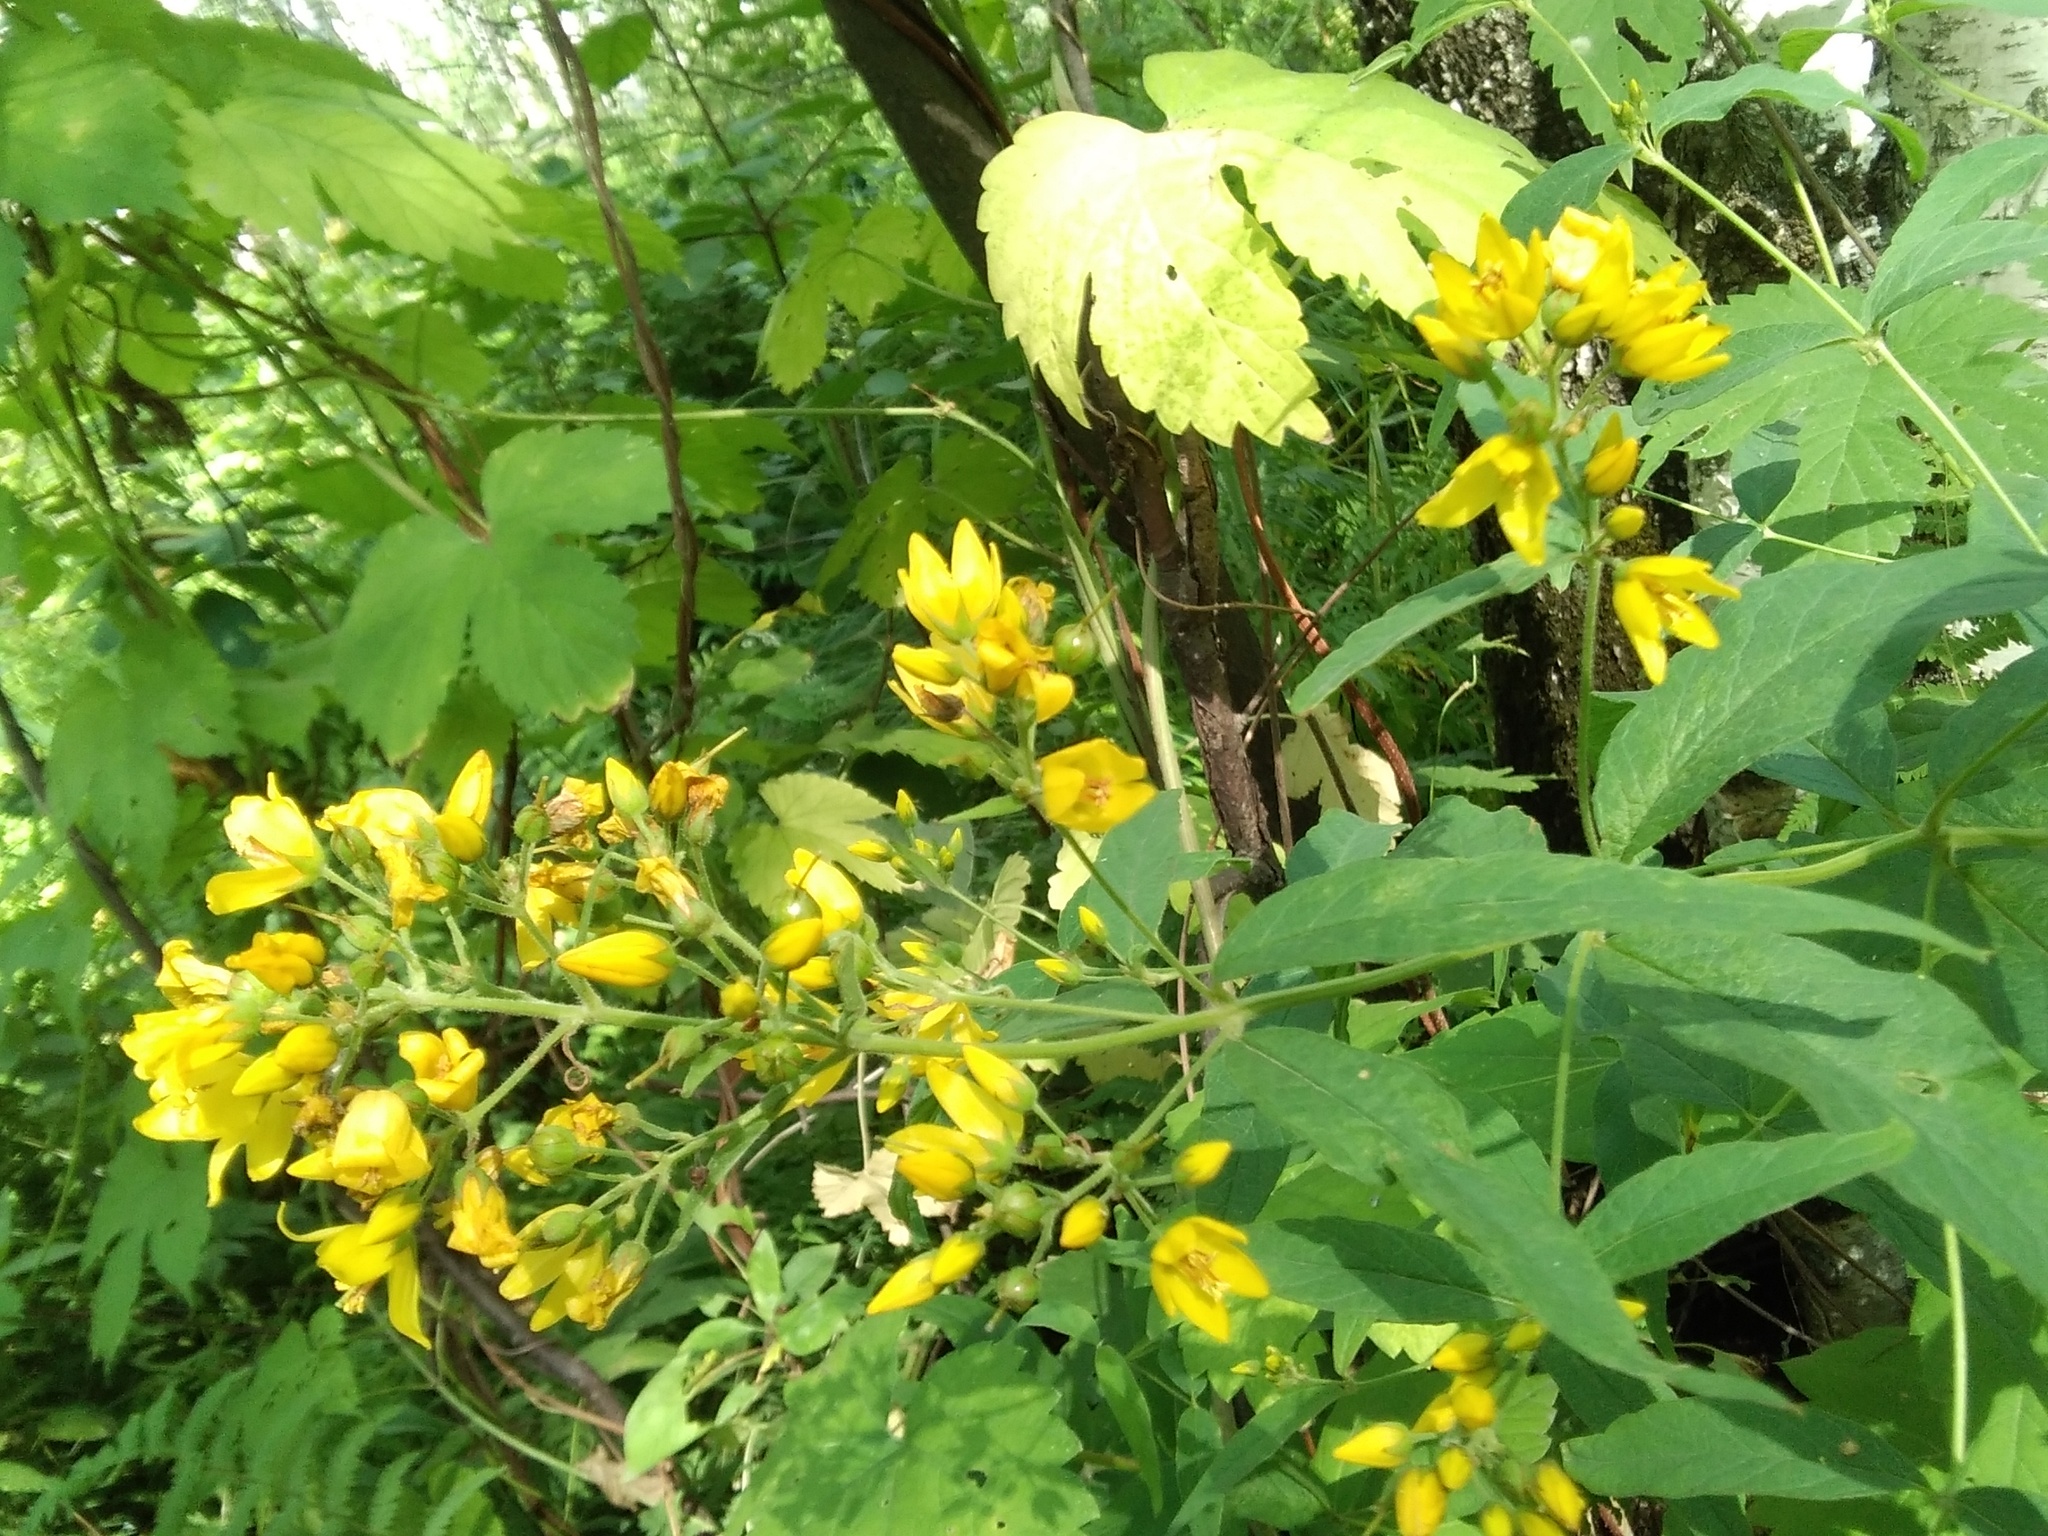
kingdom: Plantae
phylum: Tracheophyta
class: Magnoliopsida
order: Ericales
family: Primulaceae
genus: Lysimachia
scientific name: Lysimachia vulgaris
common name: Yellow loosestrife
